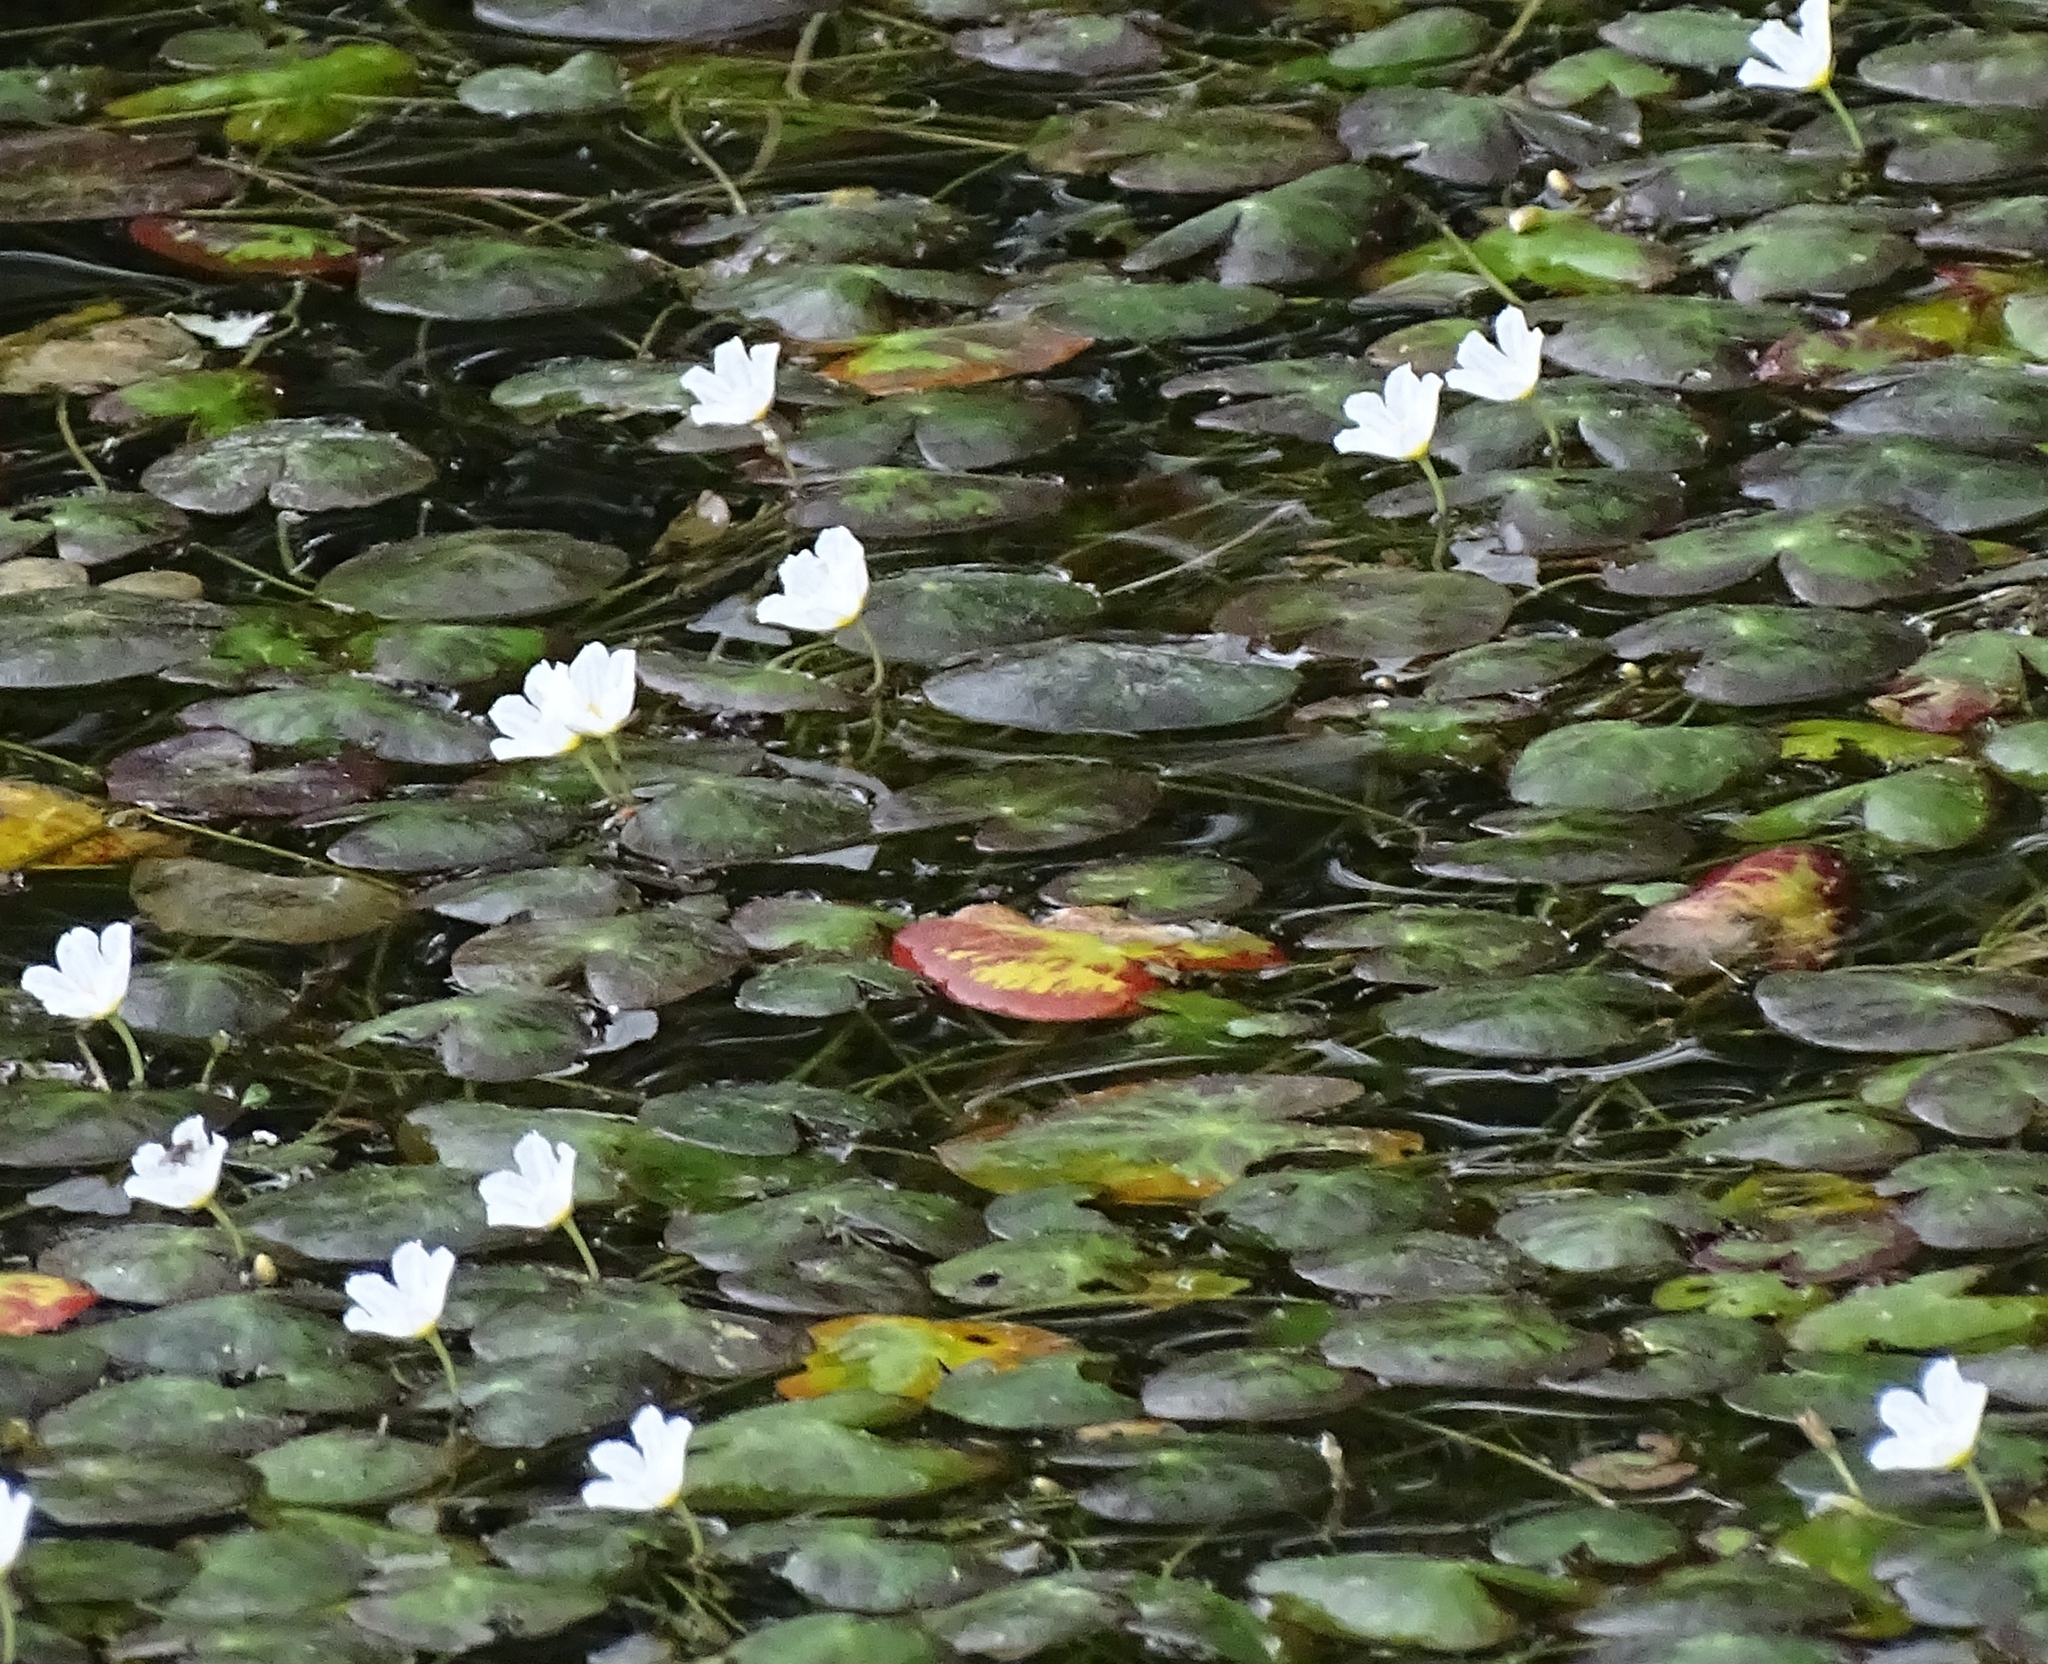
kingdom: Plantae
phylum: Tracheophyta
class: Magnoliopsida
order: Asterales
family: Menyanthaceae
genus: Nymphoides
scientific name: Nymphoides cordata
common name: Eight-angled floatingheart
